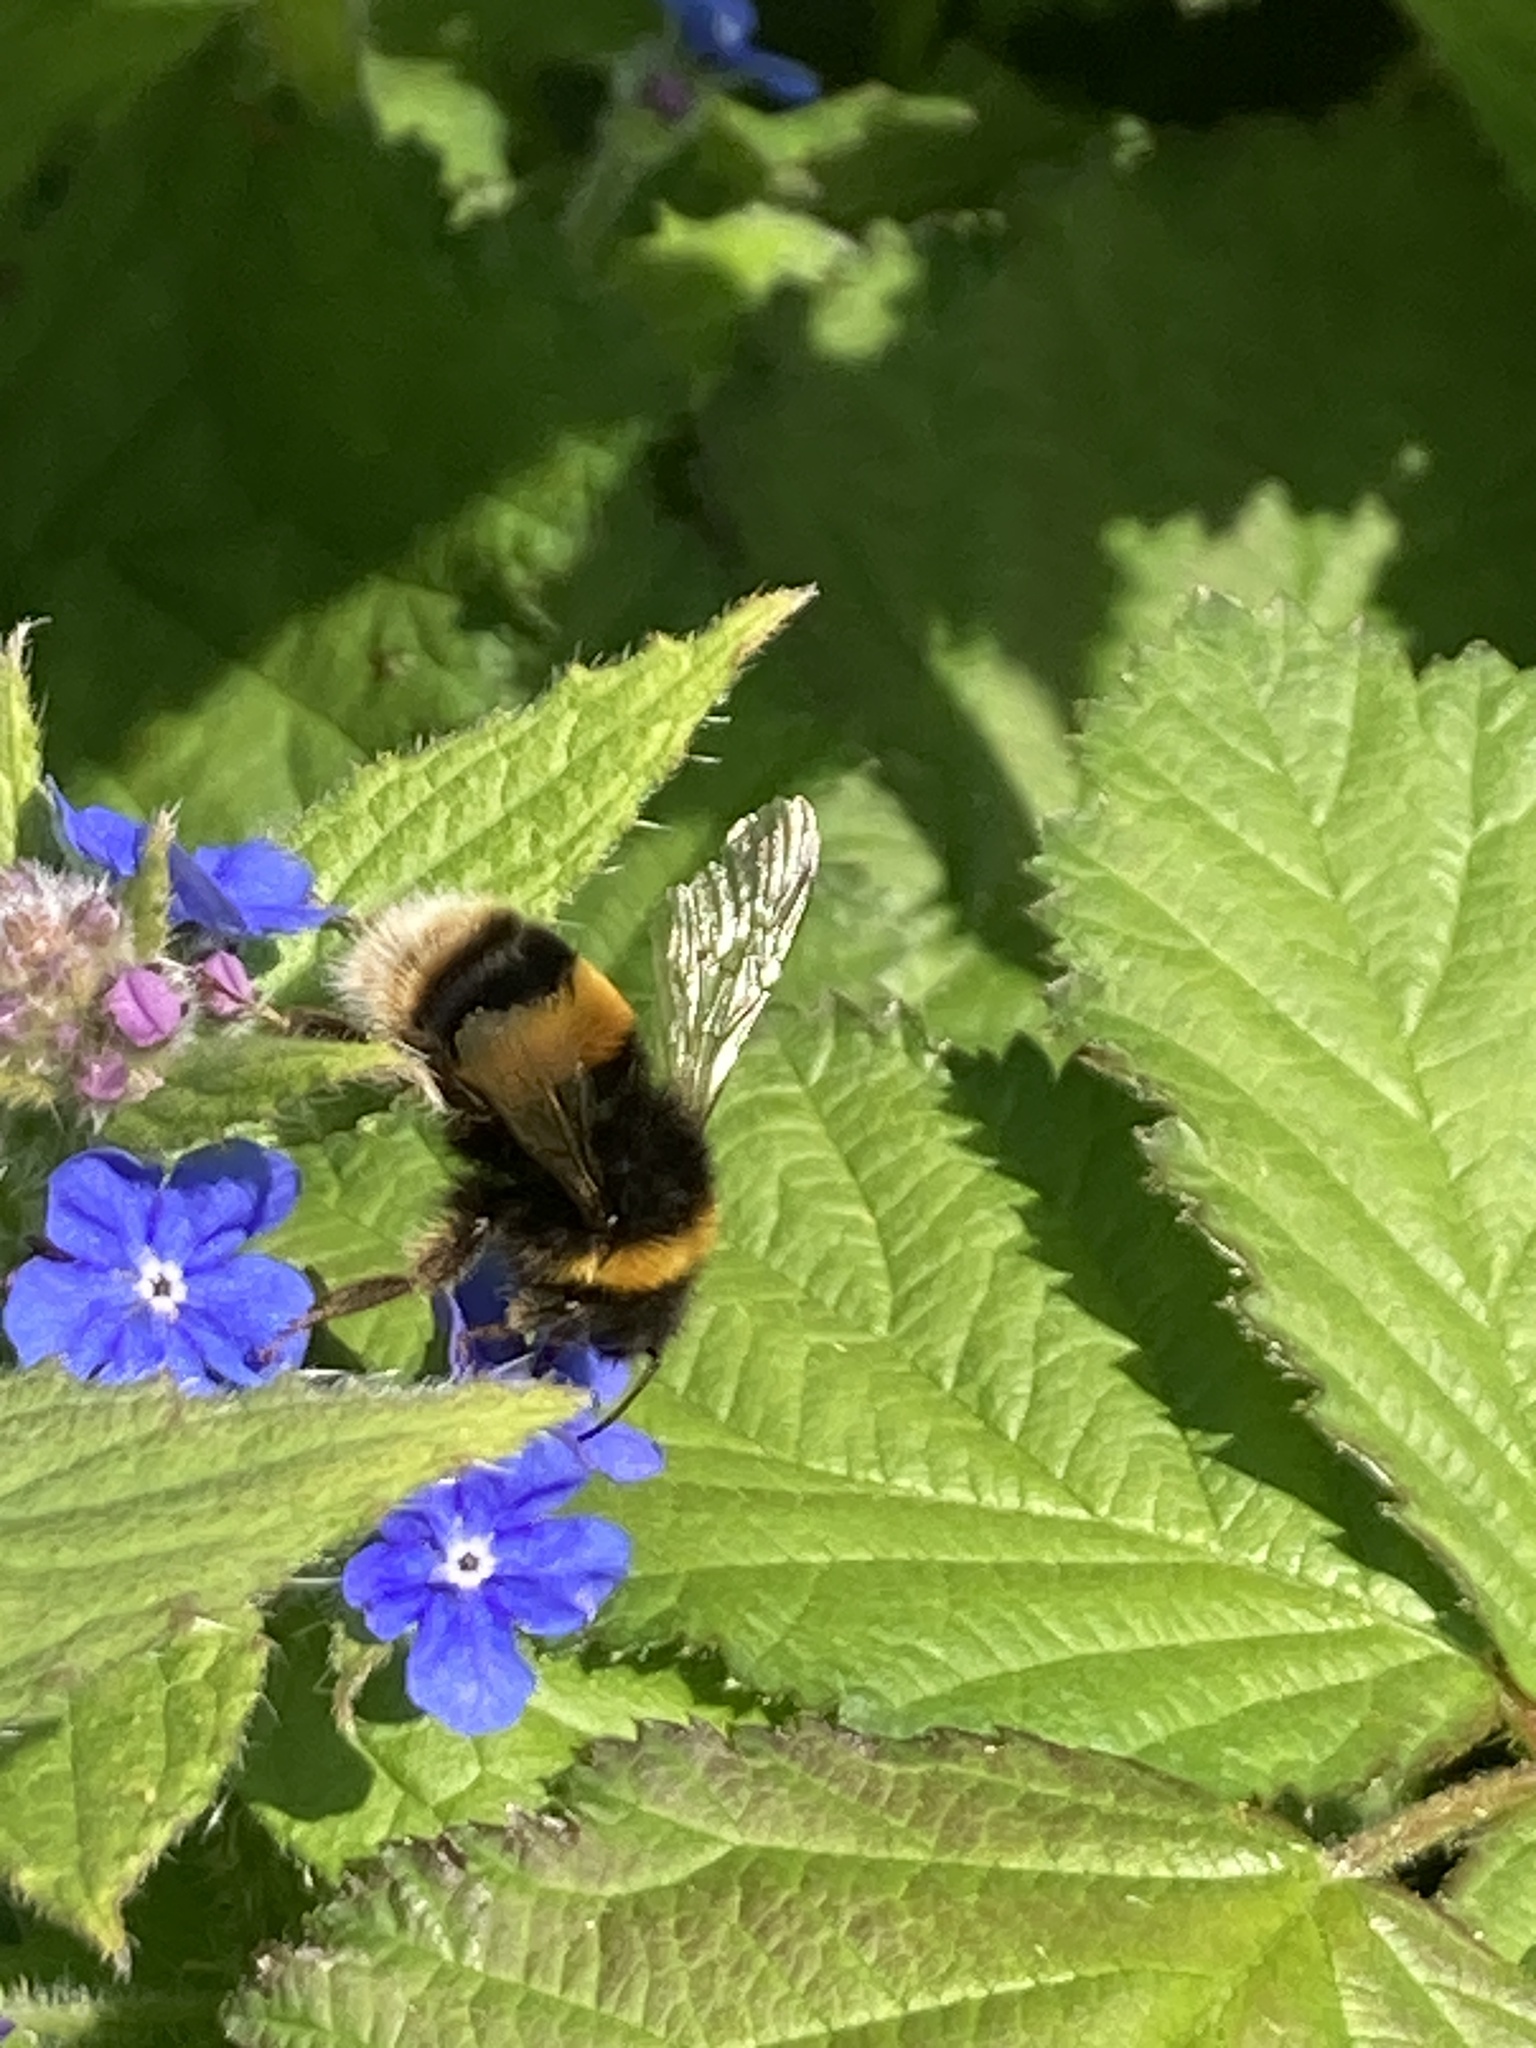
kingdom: Animalia
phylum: Arthropoda
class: Insecta
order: Hymenoptera
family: Apidae
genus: Bombus
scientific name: Bombus terrestris
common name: Buff-tailed bumblebee
